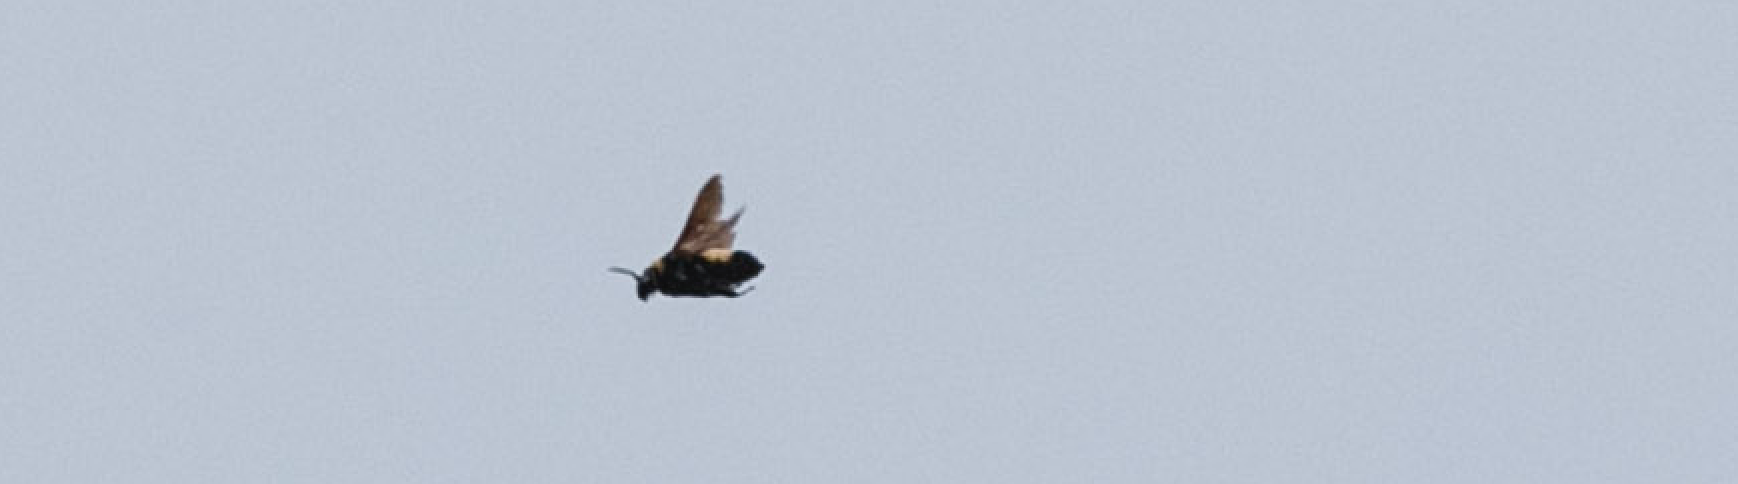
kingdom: Animalia
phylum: Arthropoda
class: Insecta
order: Hymenoptera
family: Apidae
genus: Bombus
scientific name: Bombus pensylvanicus
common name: Bumble bee
